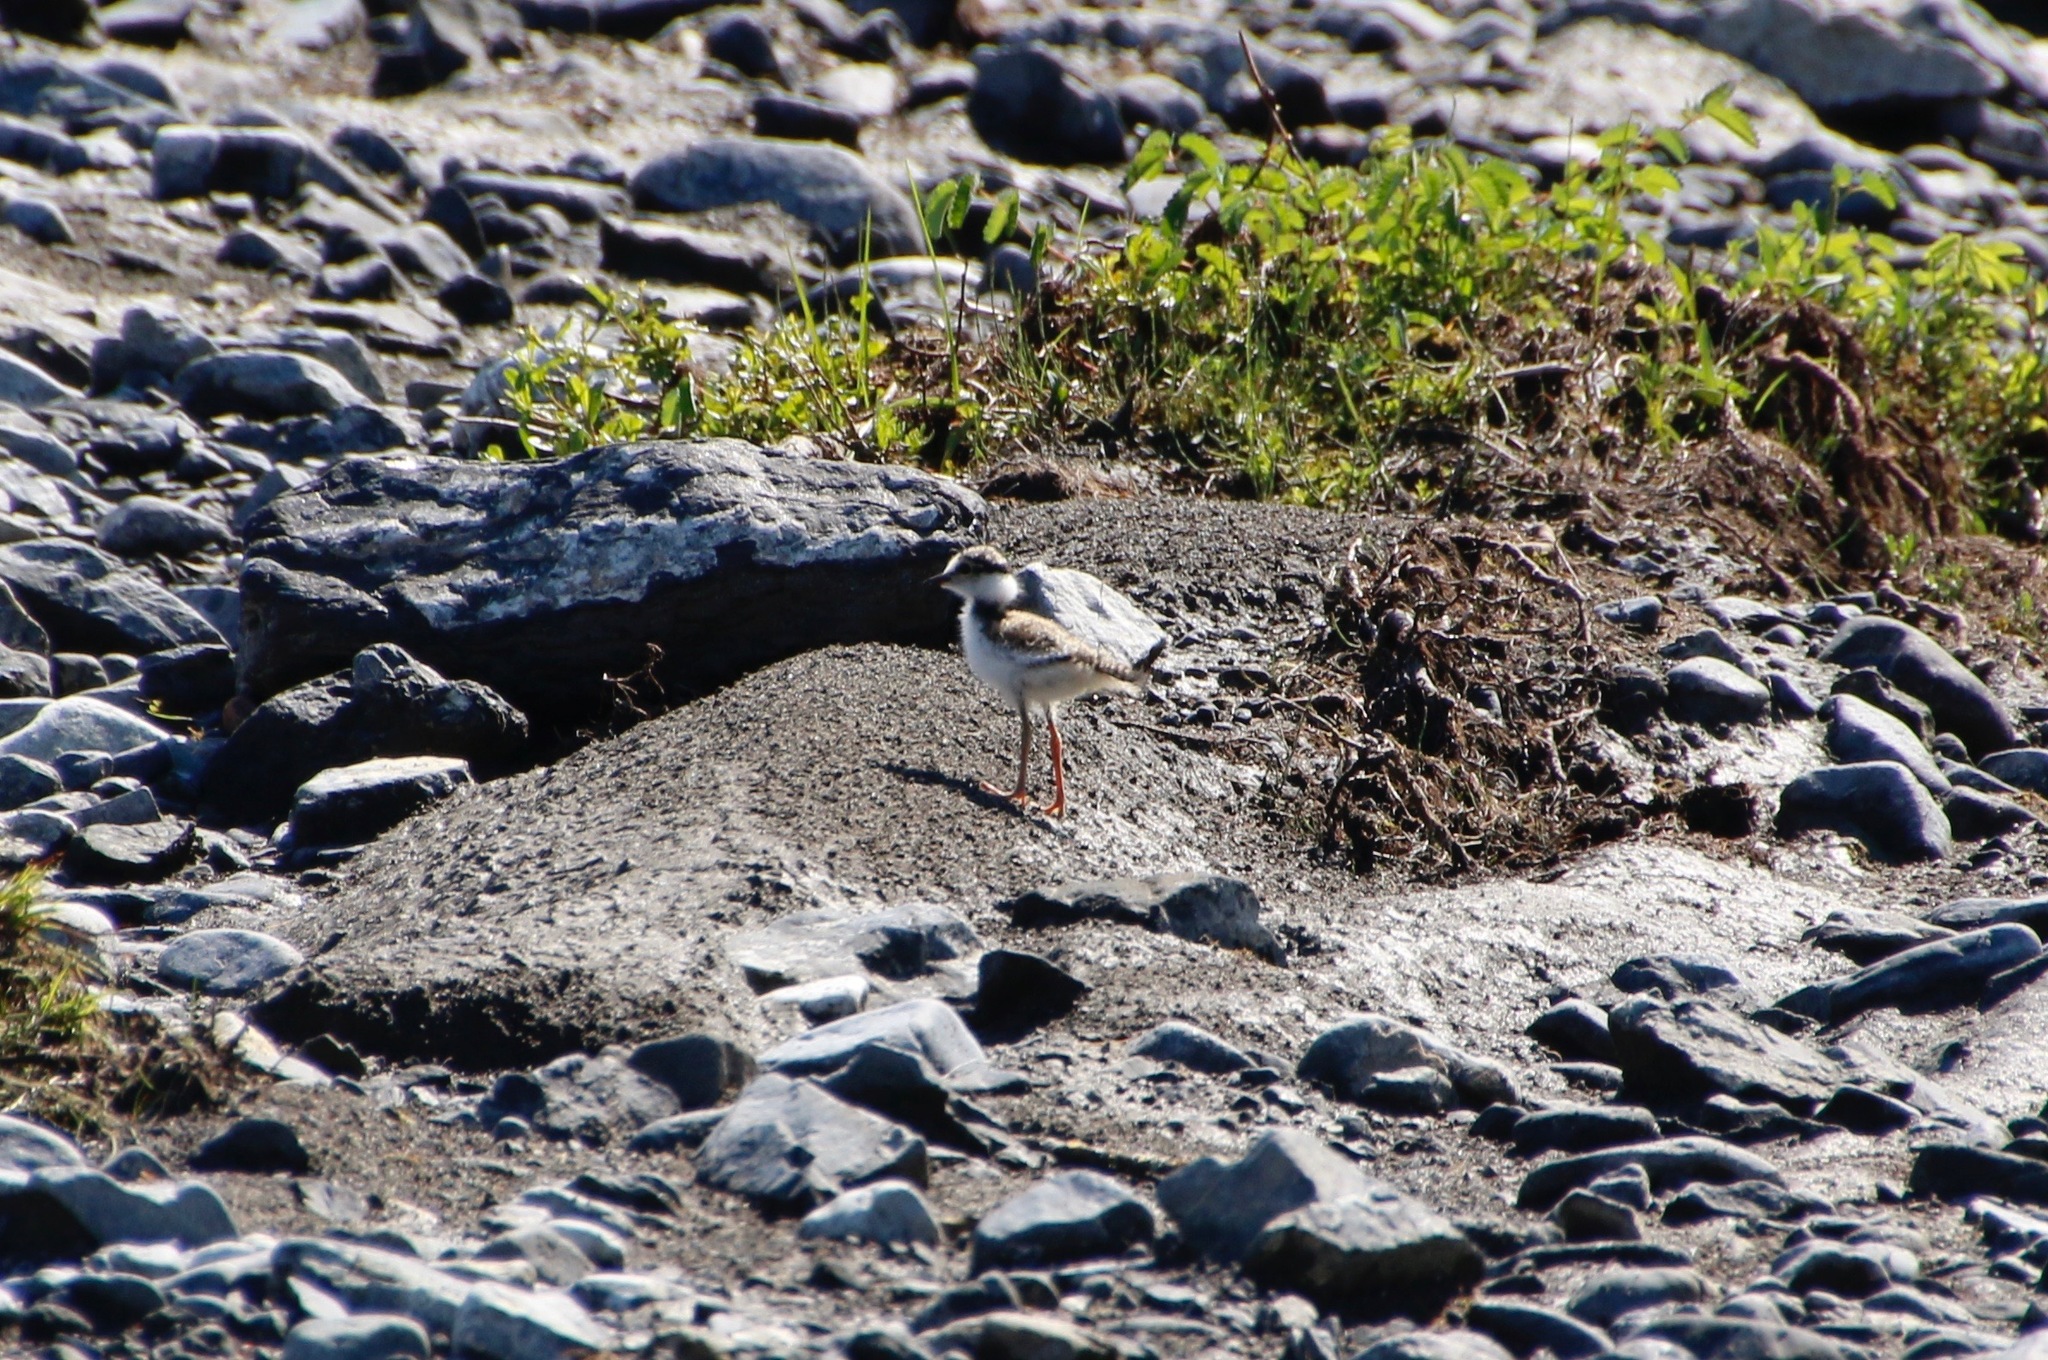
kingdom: Animalia
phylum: Chordata
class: Aves
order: Charadriiformes
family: Charadriidae
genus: Charadrius
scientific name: Charadrius dubius
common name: Little ringed plover
